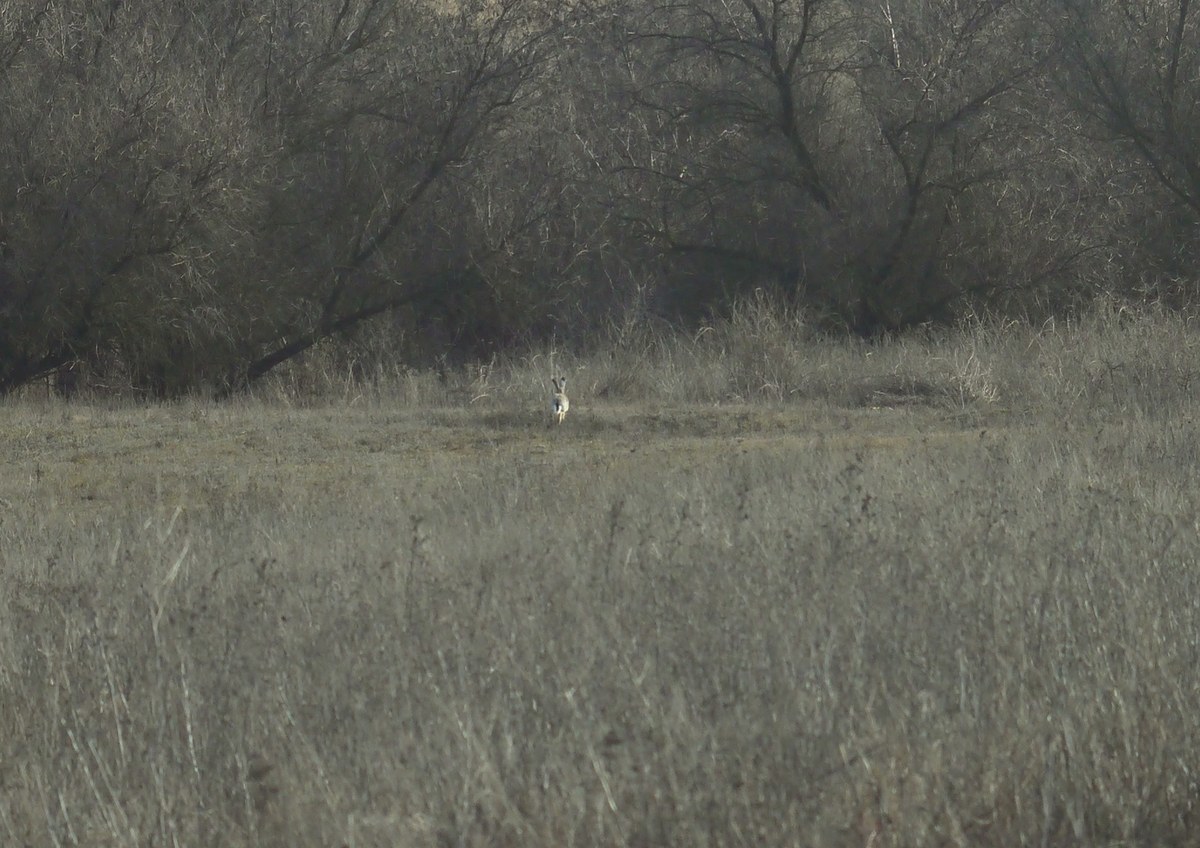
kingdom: Animalia
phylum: Chordata
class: Mammalia
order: Lagomorpha
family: Leporidae
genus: Lepus
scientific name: Lepus europaeus
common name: European hare
